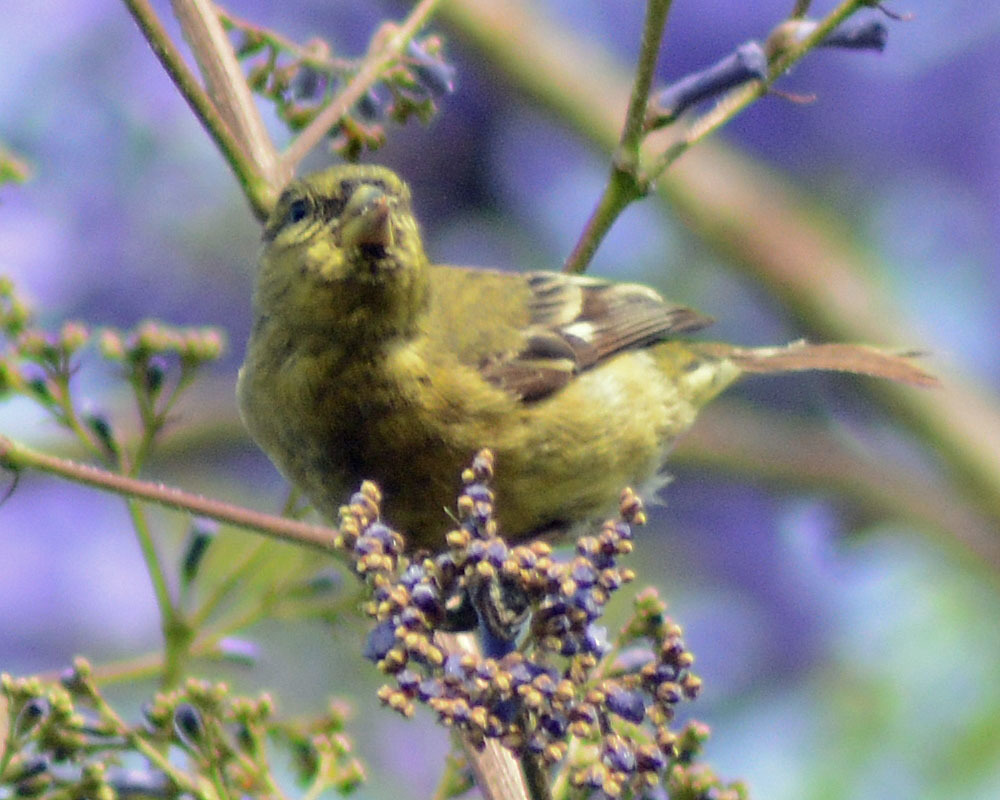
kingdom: Animalia
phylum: Chordata
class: Aves
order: Passeriformes
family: Fringillidae
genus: Spinus
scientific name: Spinus psaltria
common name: Lesser goldfinch
